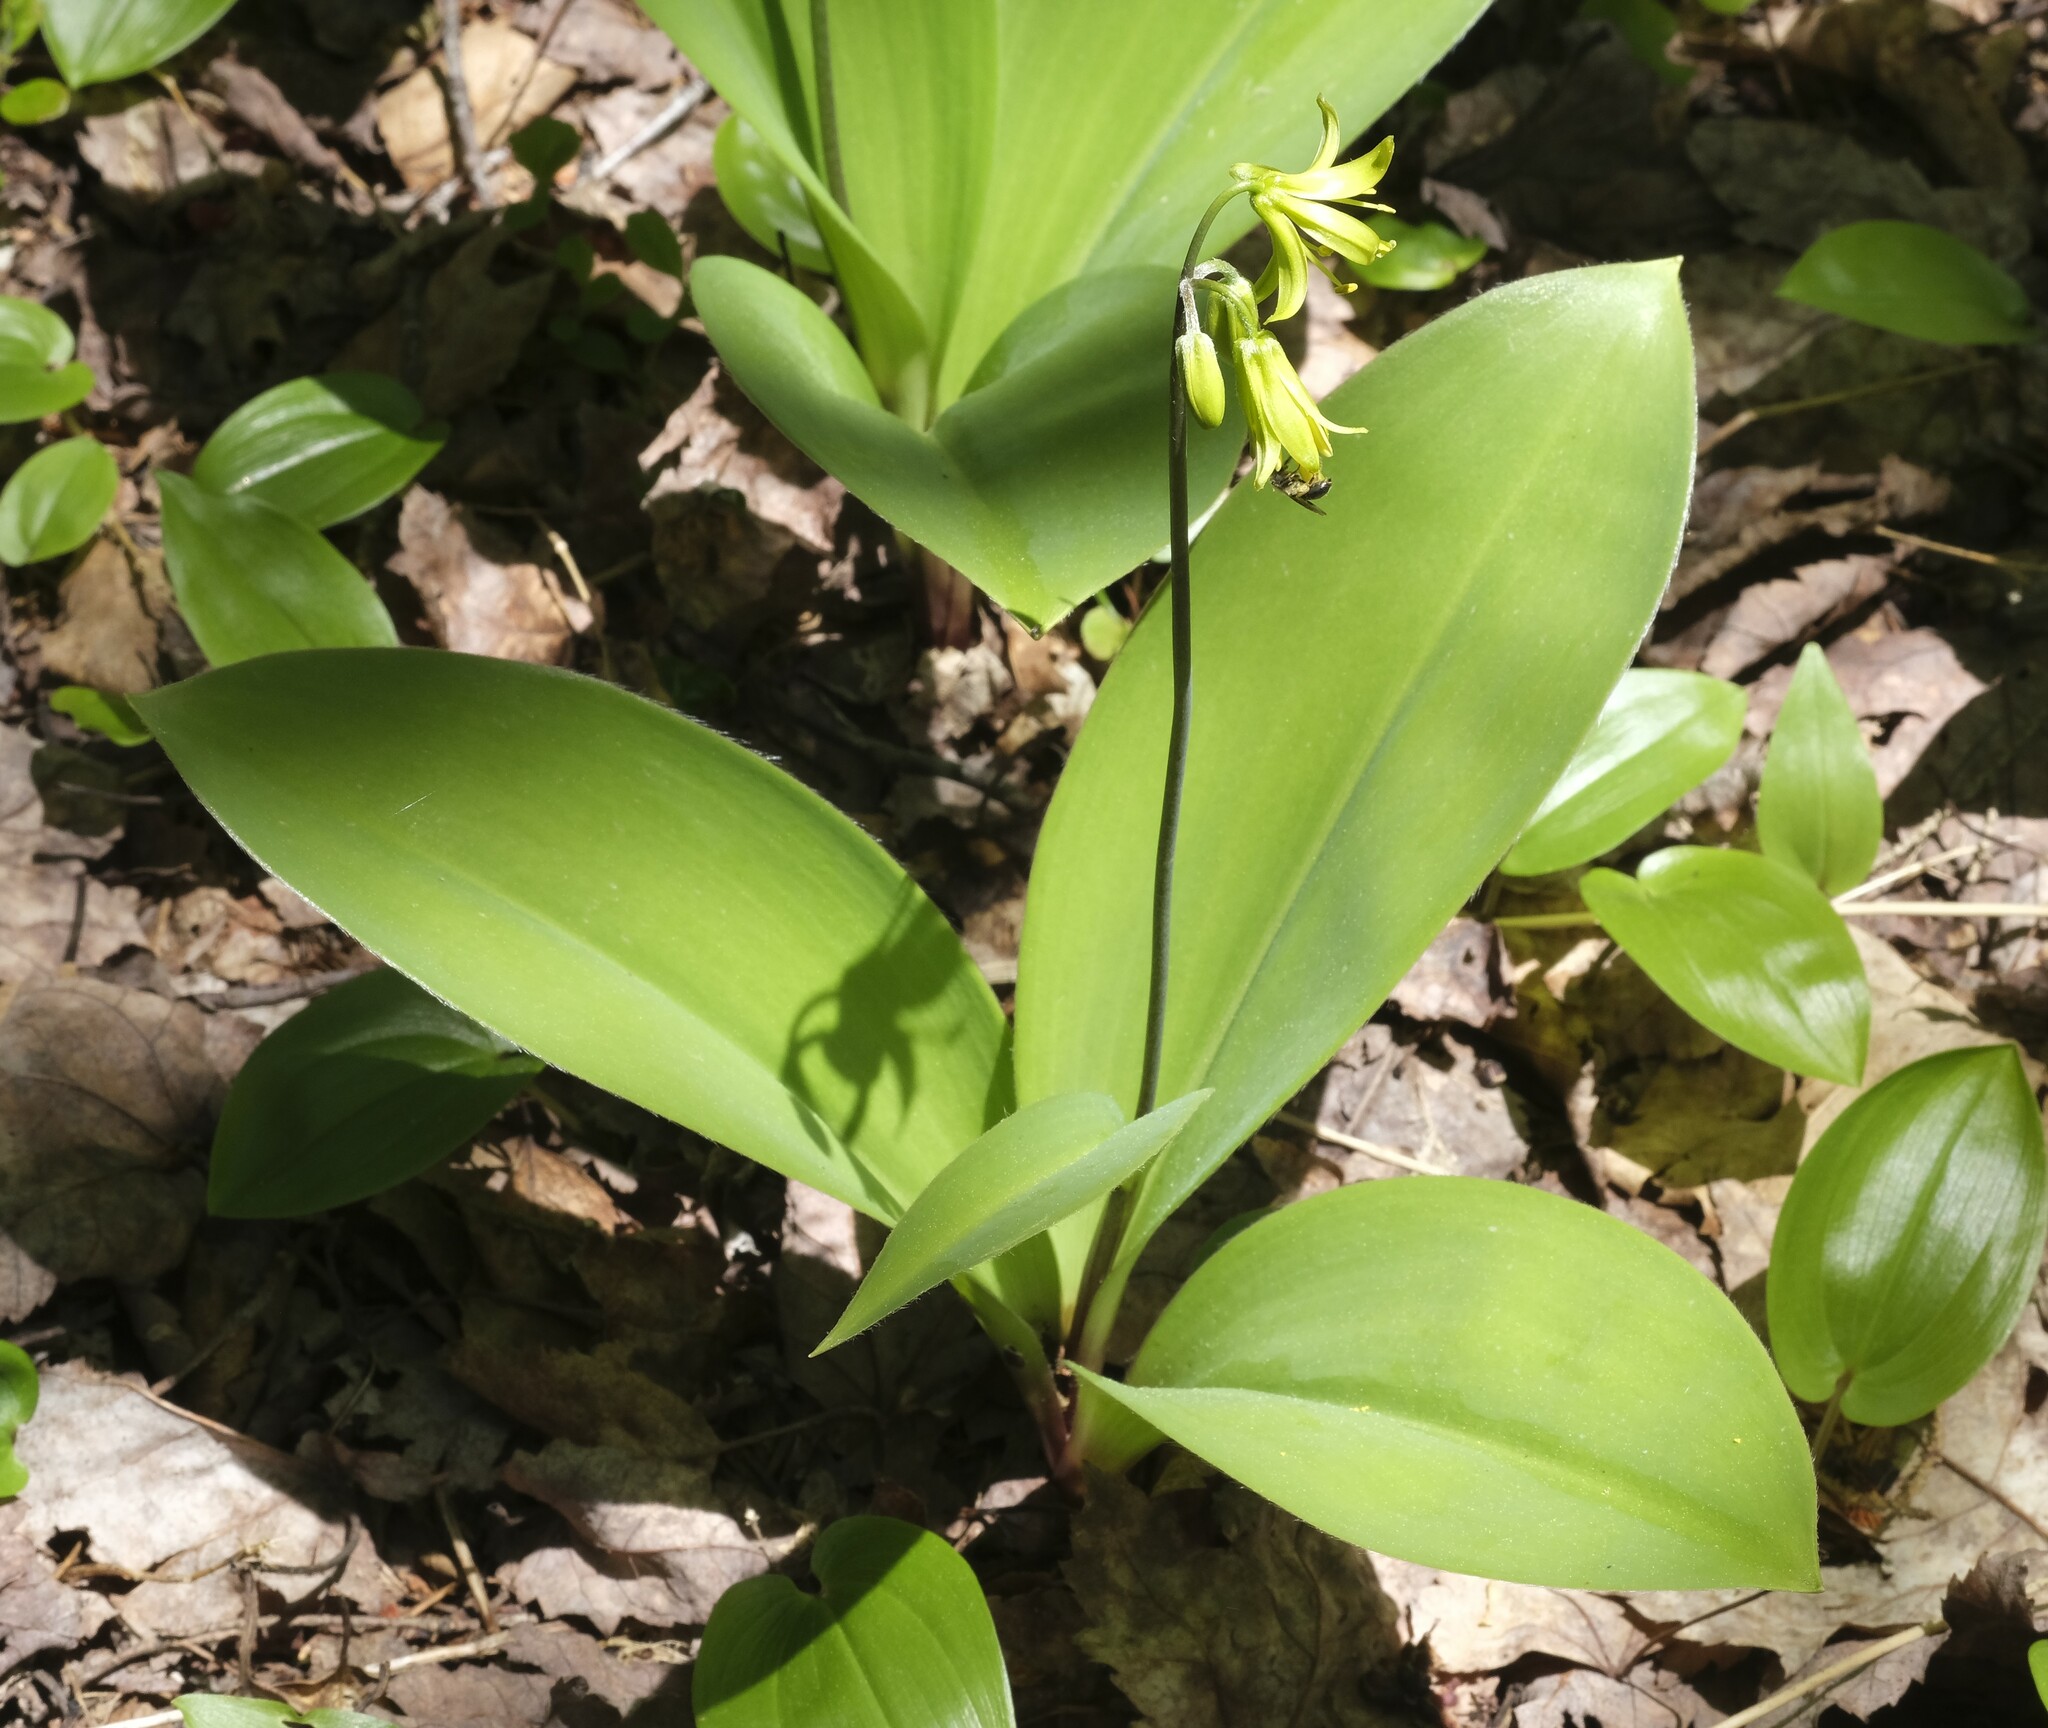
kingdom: Plantae
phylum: Tracheophyta
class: Liliopsida
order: Liliales
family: Liliaceae
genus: Clintonia
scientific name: Clintonia borealis
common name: Yellow clintonia
